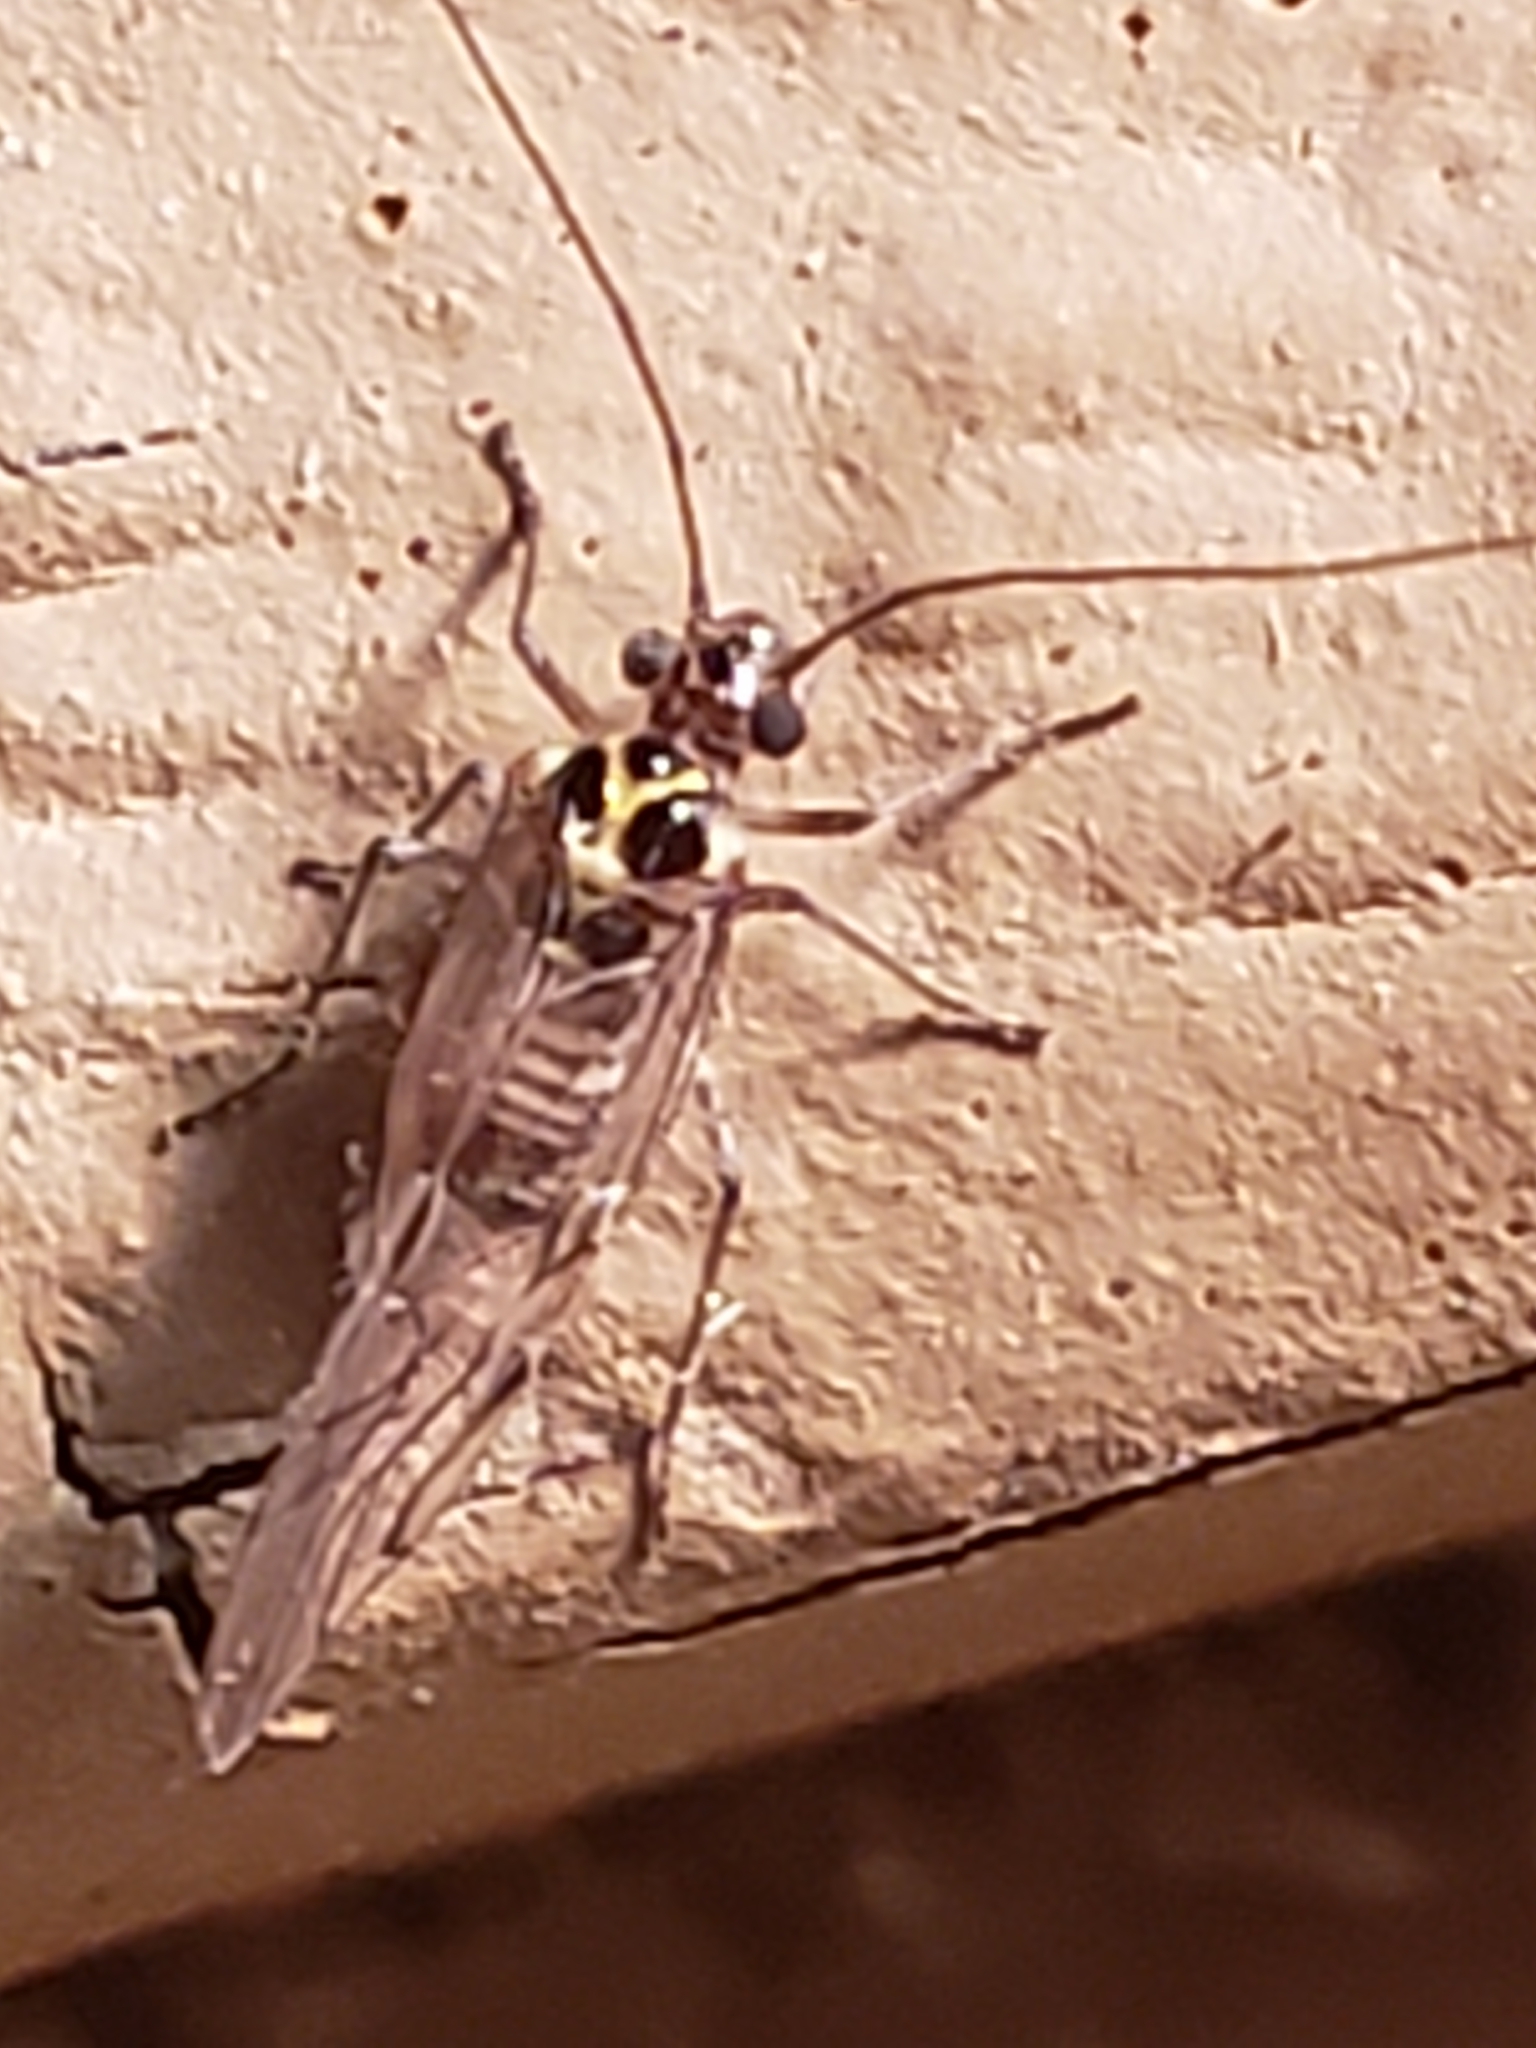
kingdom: Animalia
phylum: Arthropoda
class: Insecta
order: Psocodea
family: Dasydemellidae
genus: Teliapsocus
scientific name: Teliapsocus conterminus
